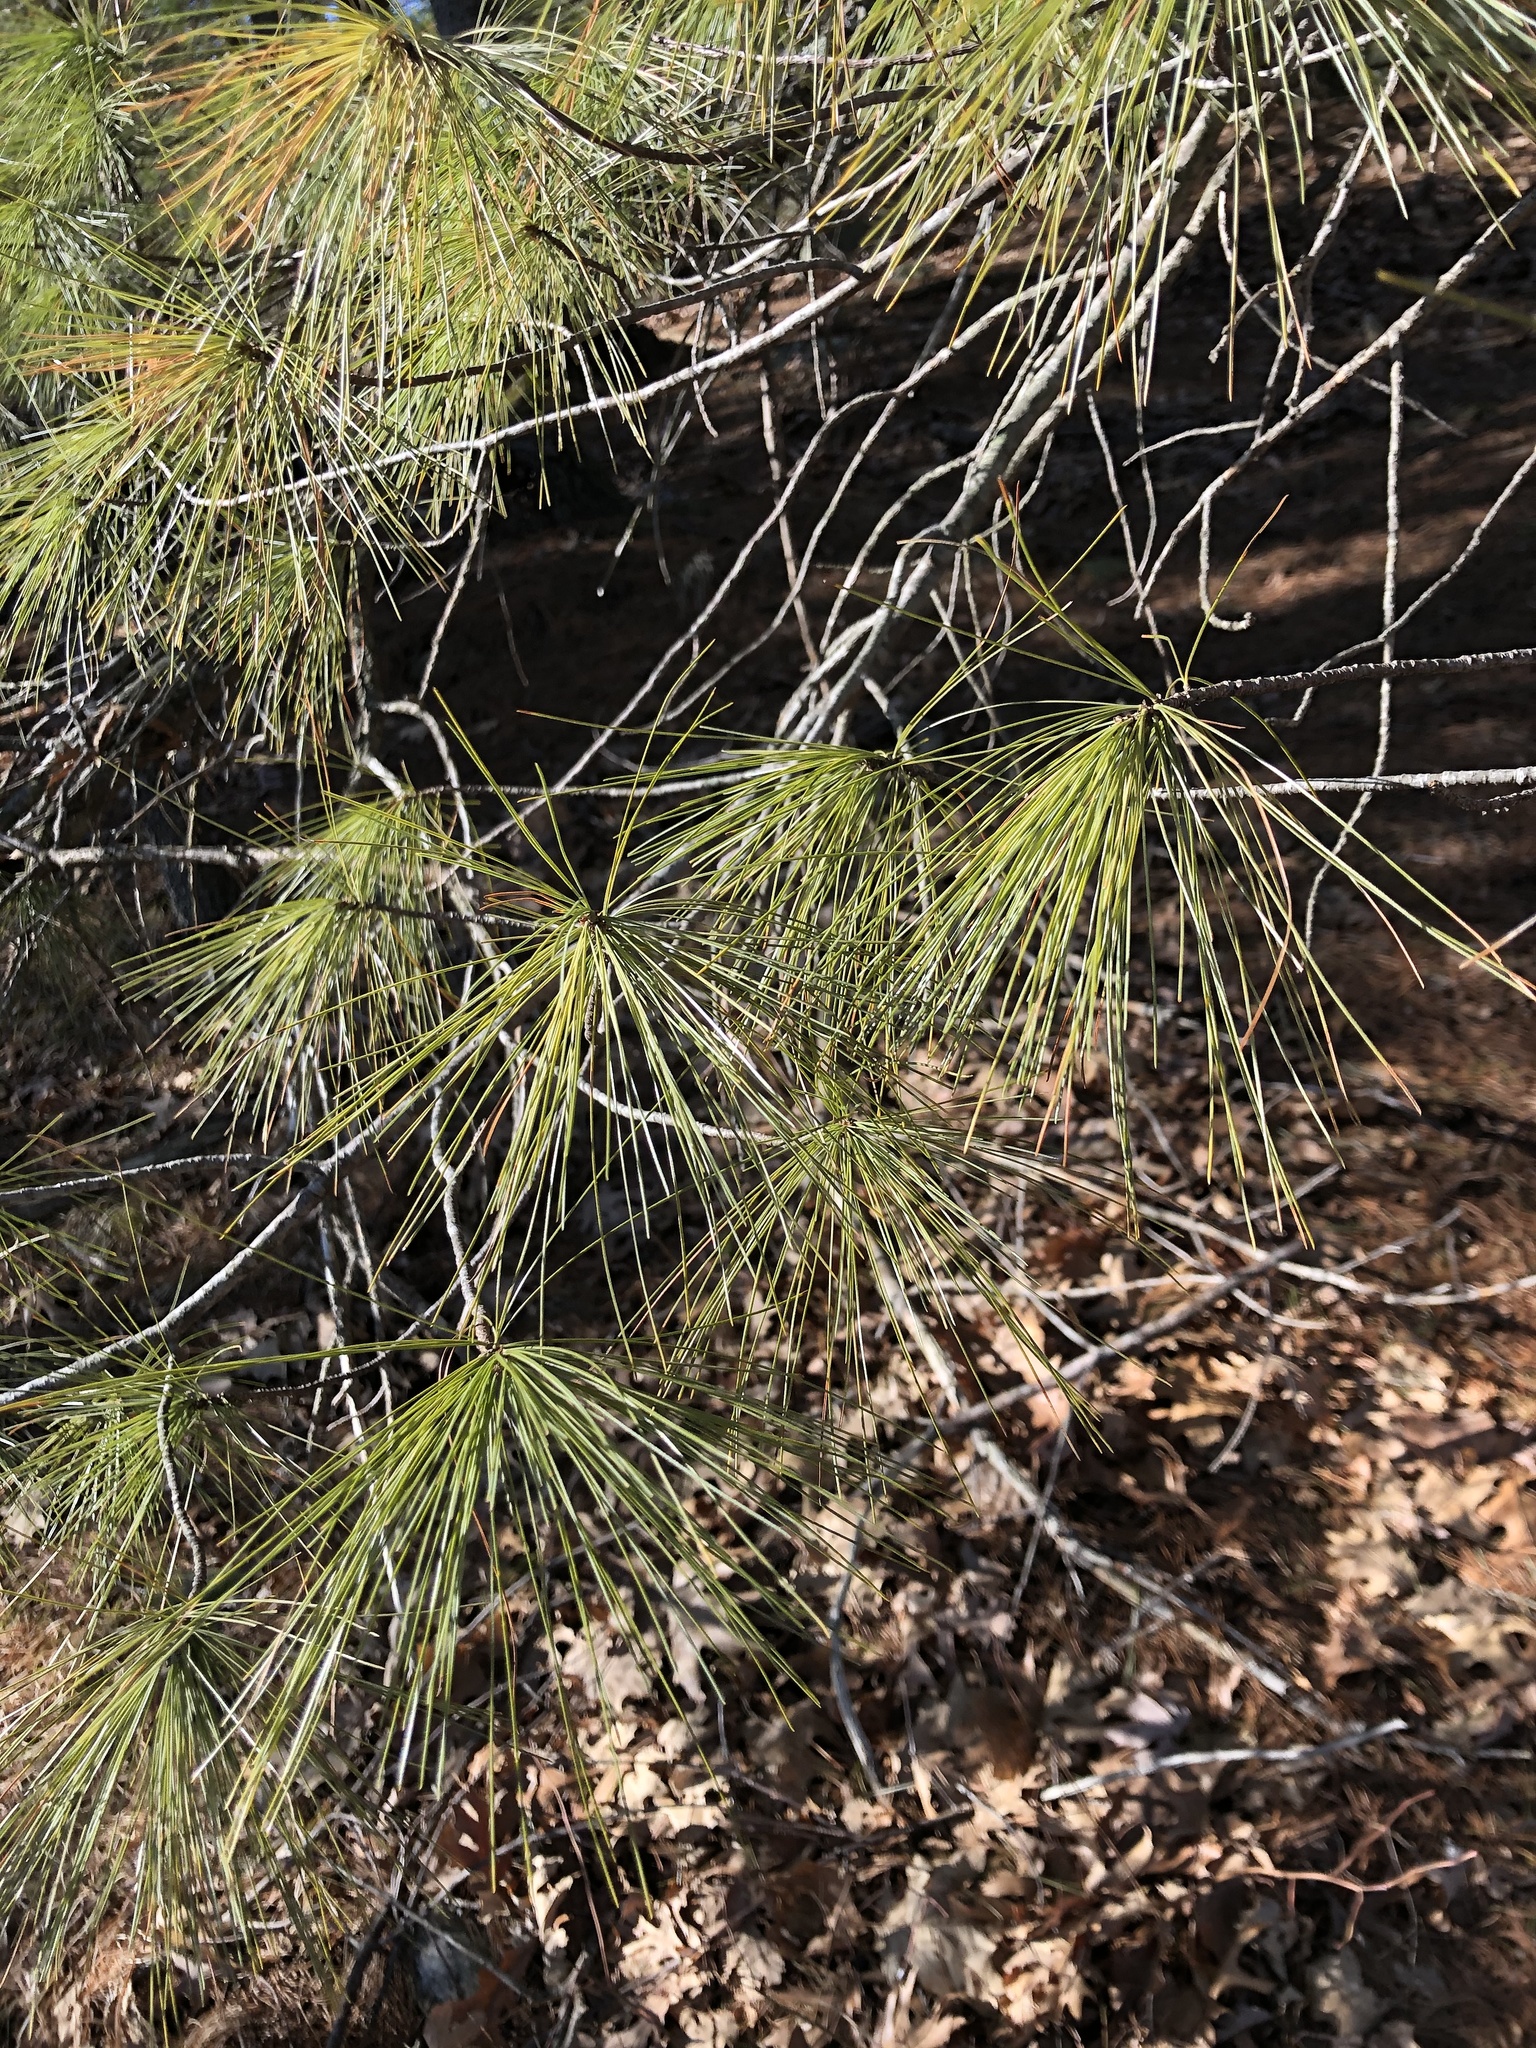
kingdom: Plantae
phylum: Tracheophyta
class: Pinopsida
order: Pinales
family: Pinaceae
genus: Pinus
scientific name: Pinus strobus
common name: Weymouth pine
